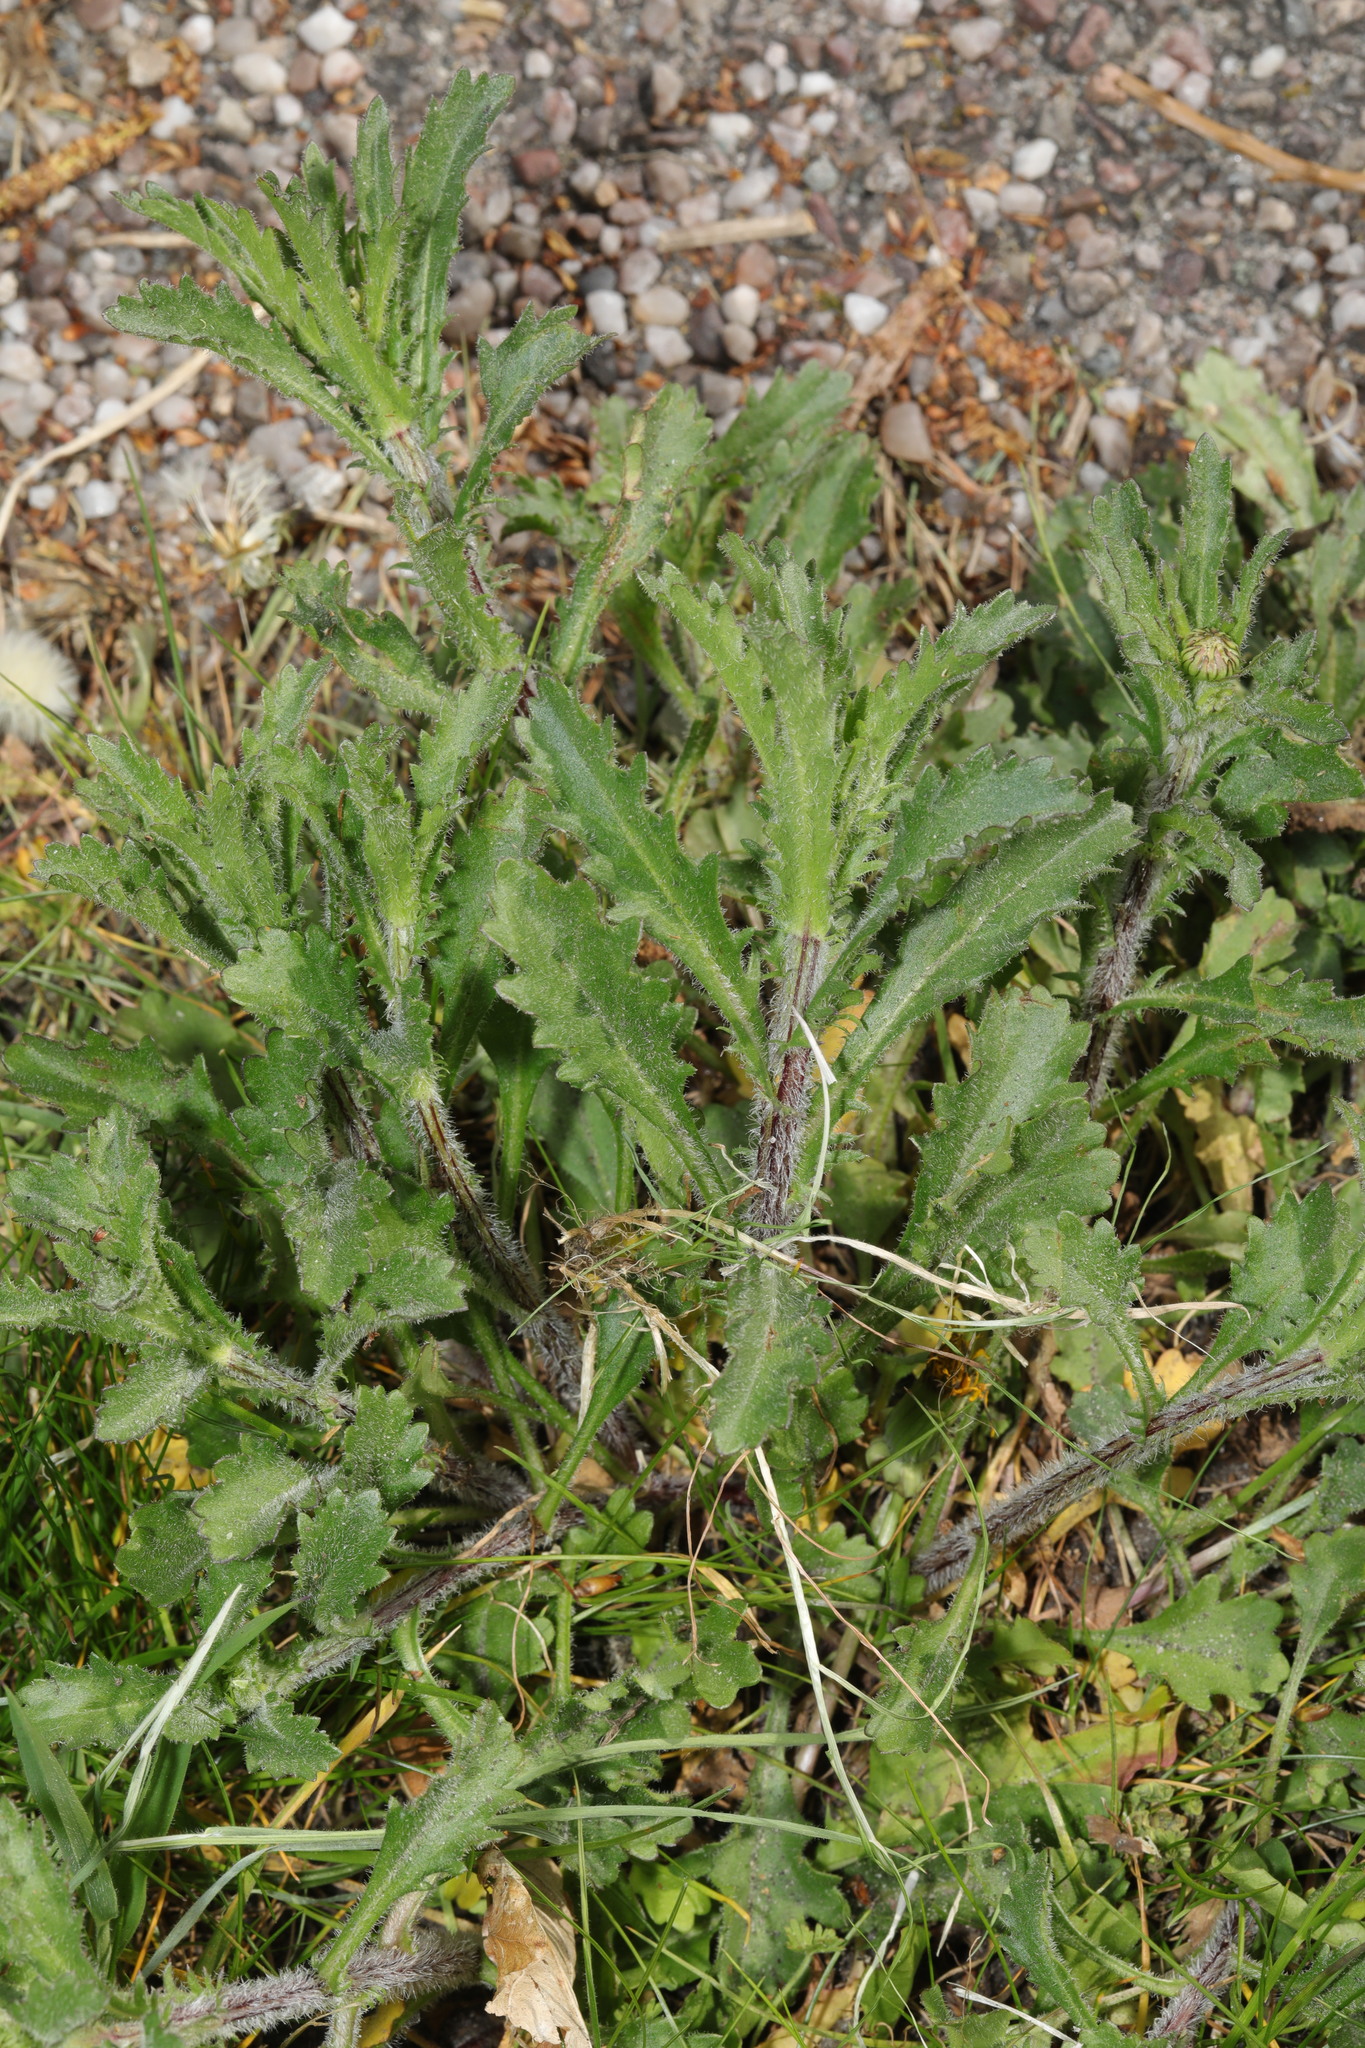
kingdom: Plantae
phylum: Tracheophyta
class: Magnoliopsida
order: Asterales
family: Asteraceae
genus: Leucanthemum
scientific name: Leucanthemum vulgare
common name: Oxeye daisy
